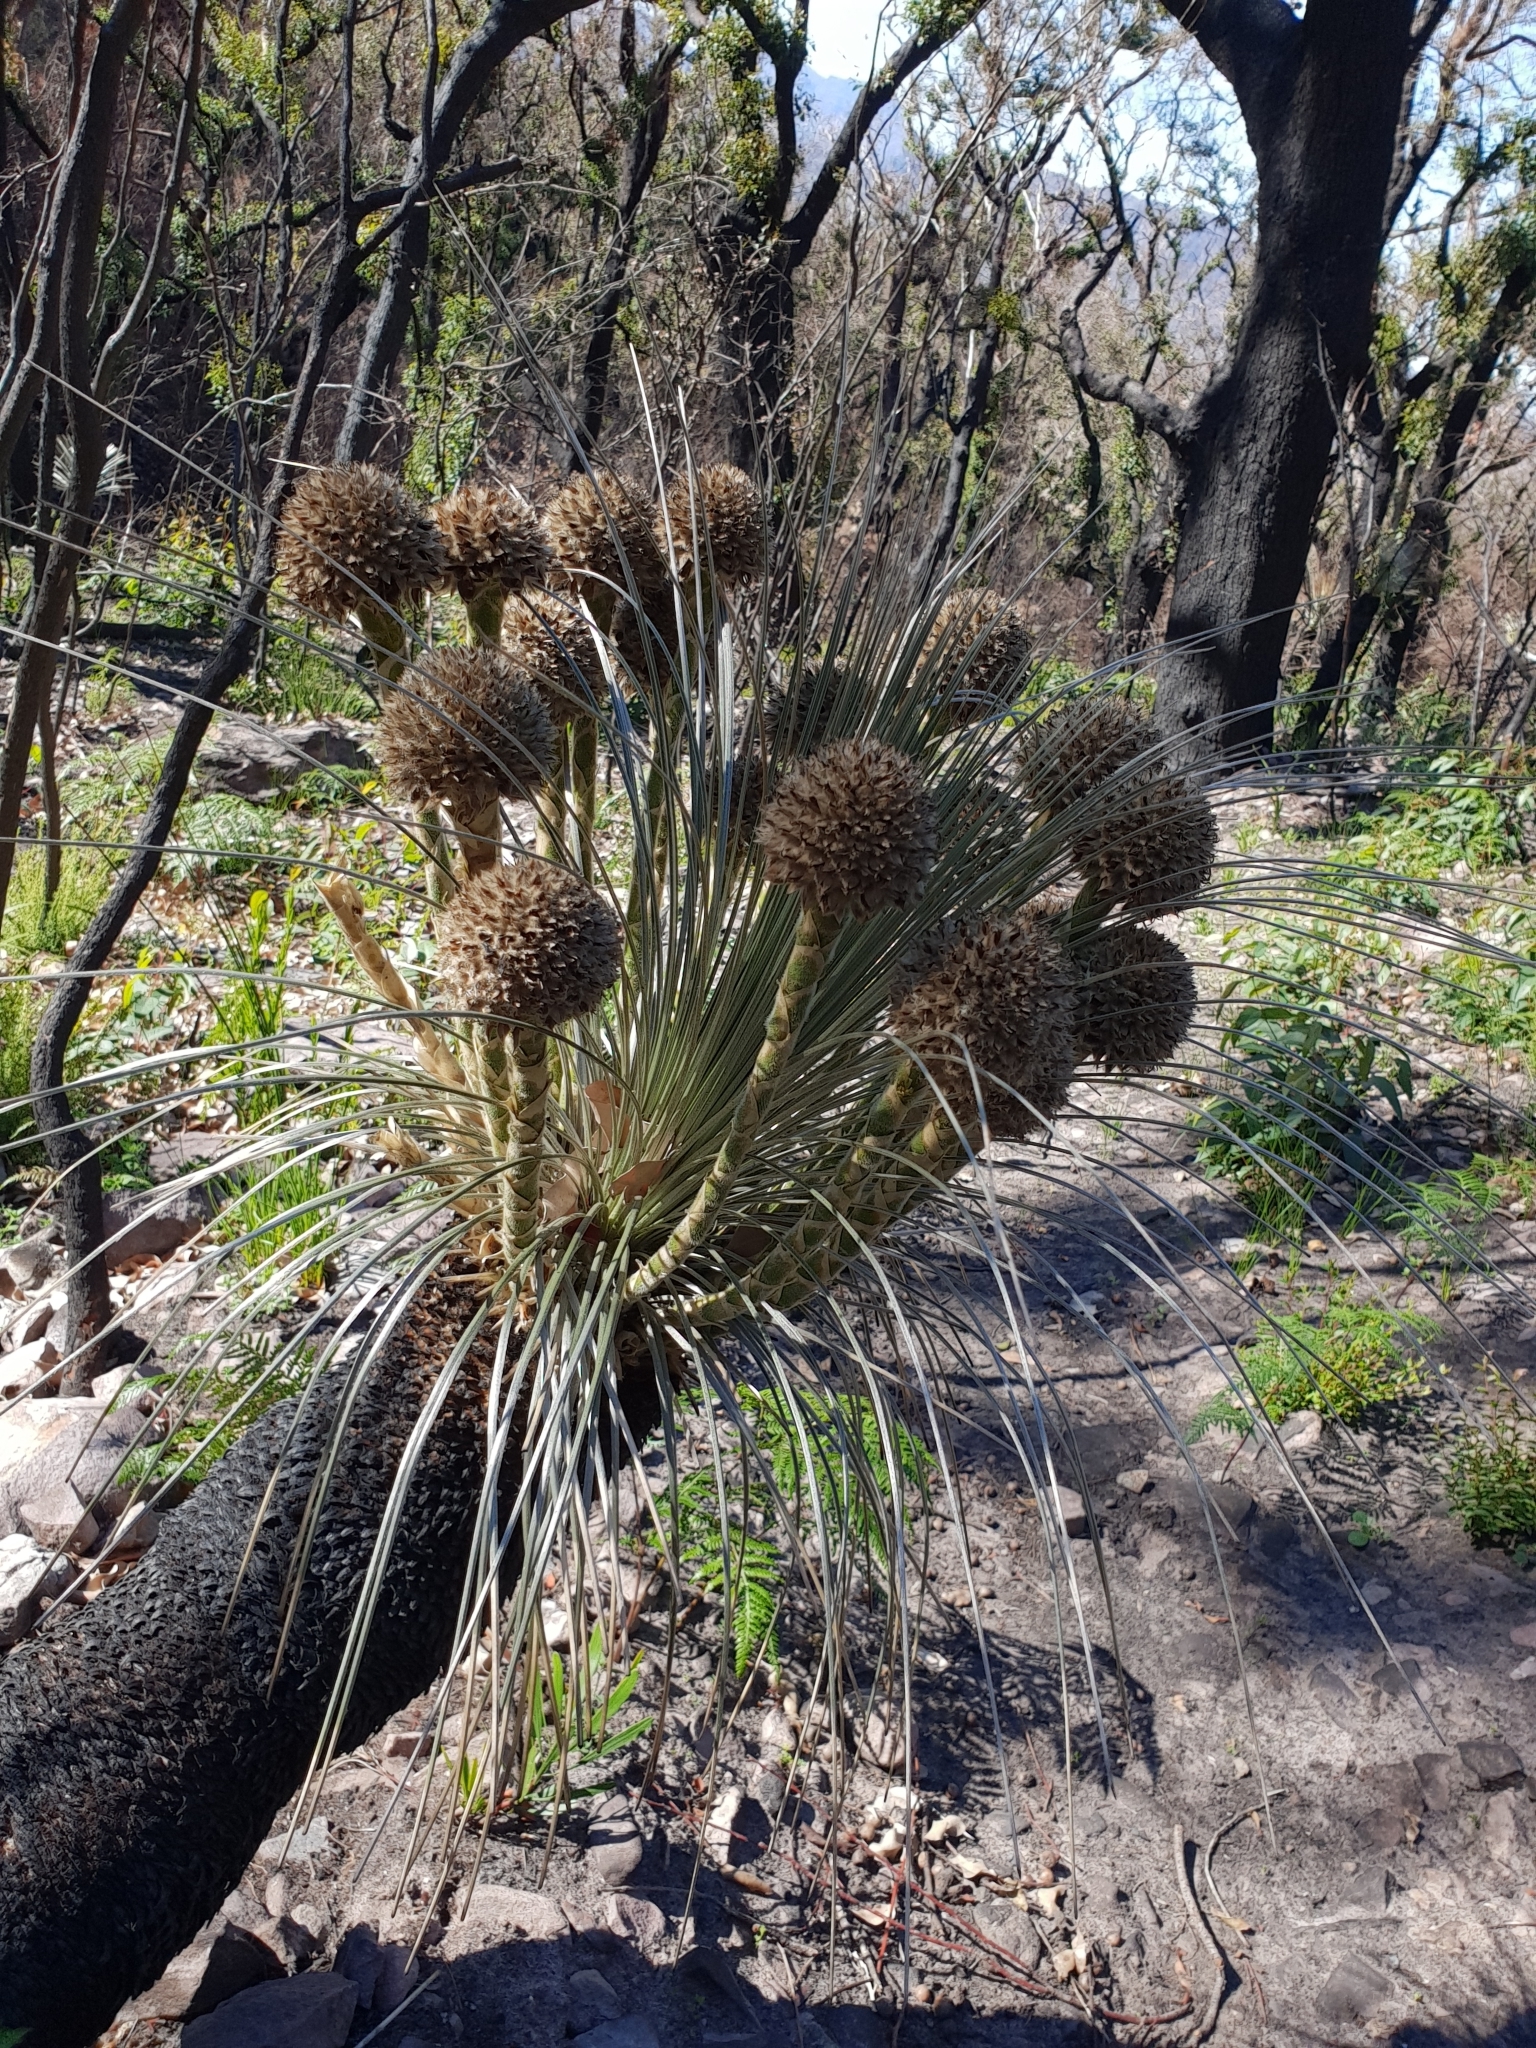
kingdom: Plantae
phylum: Tracheophyta
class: Liliopsida
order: Arecales
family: Dasypogonaceae
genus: Kingia
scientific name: Kingia australis
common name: Black gin
